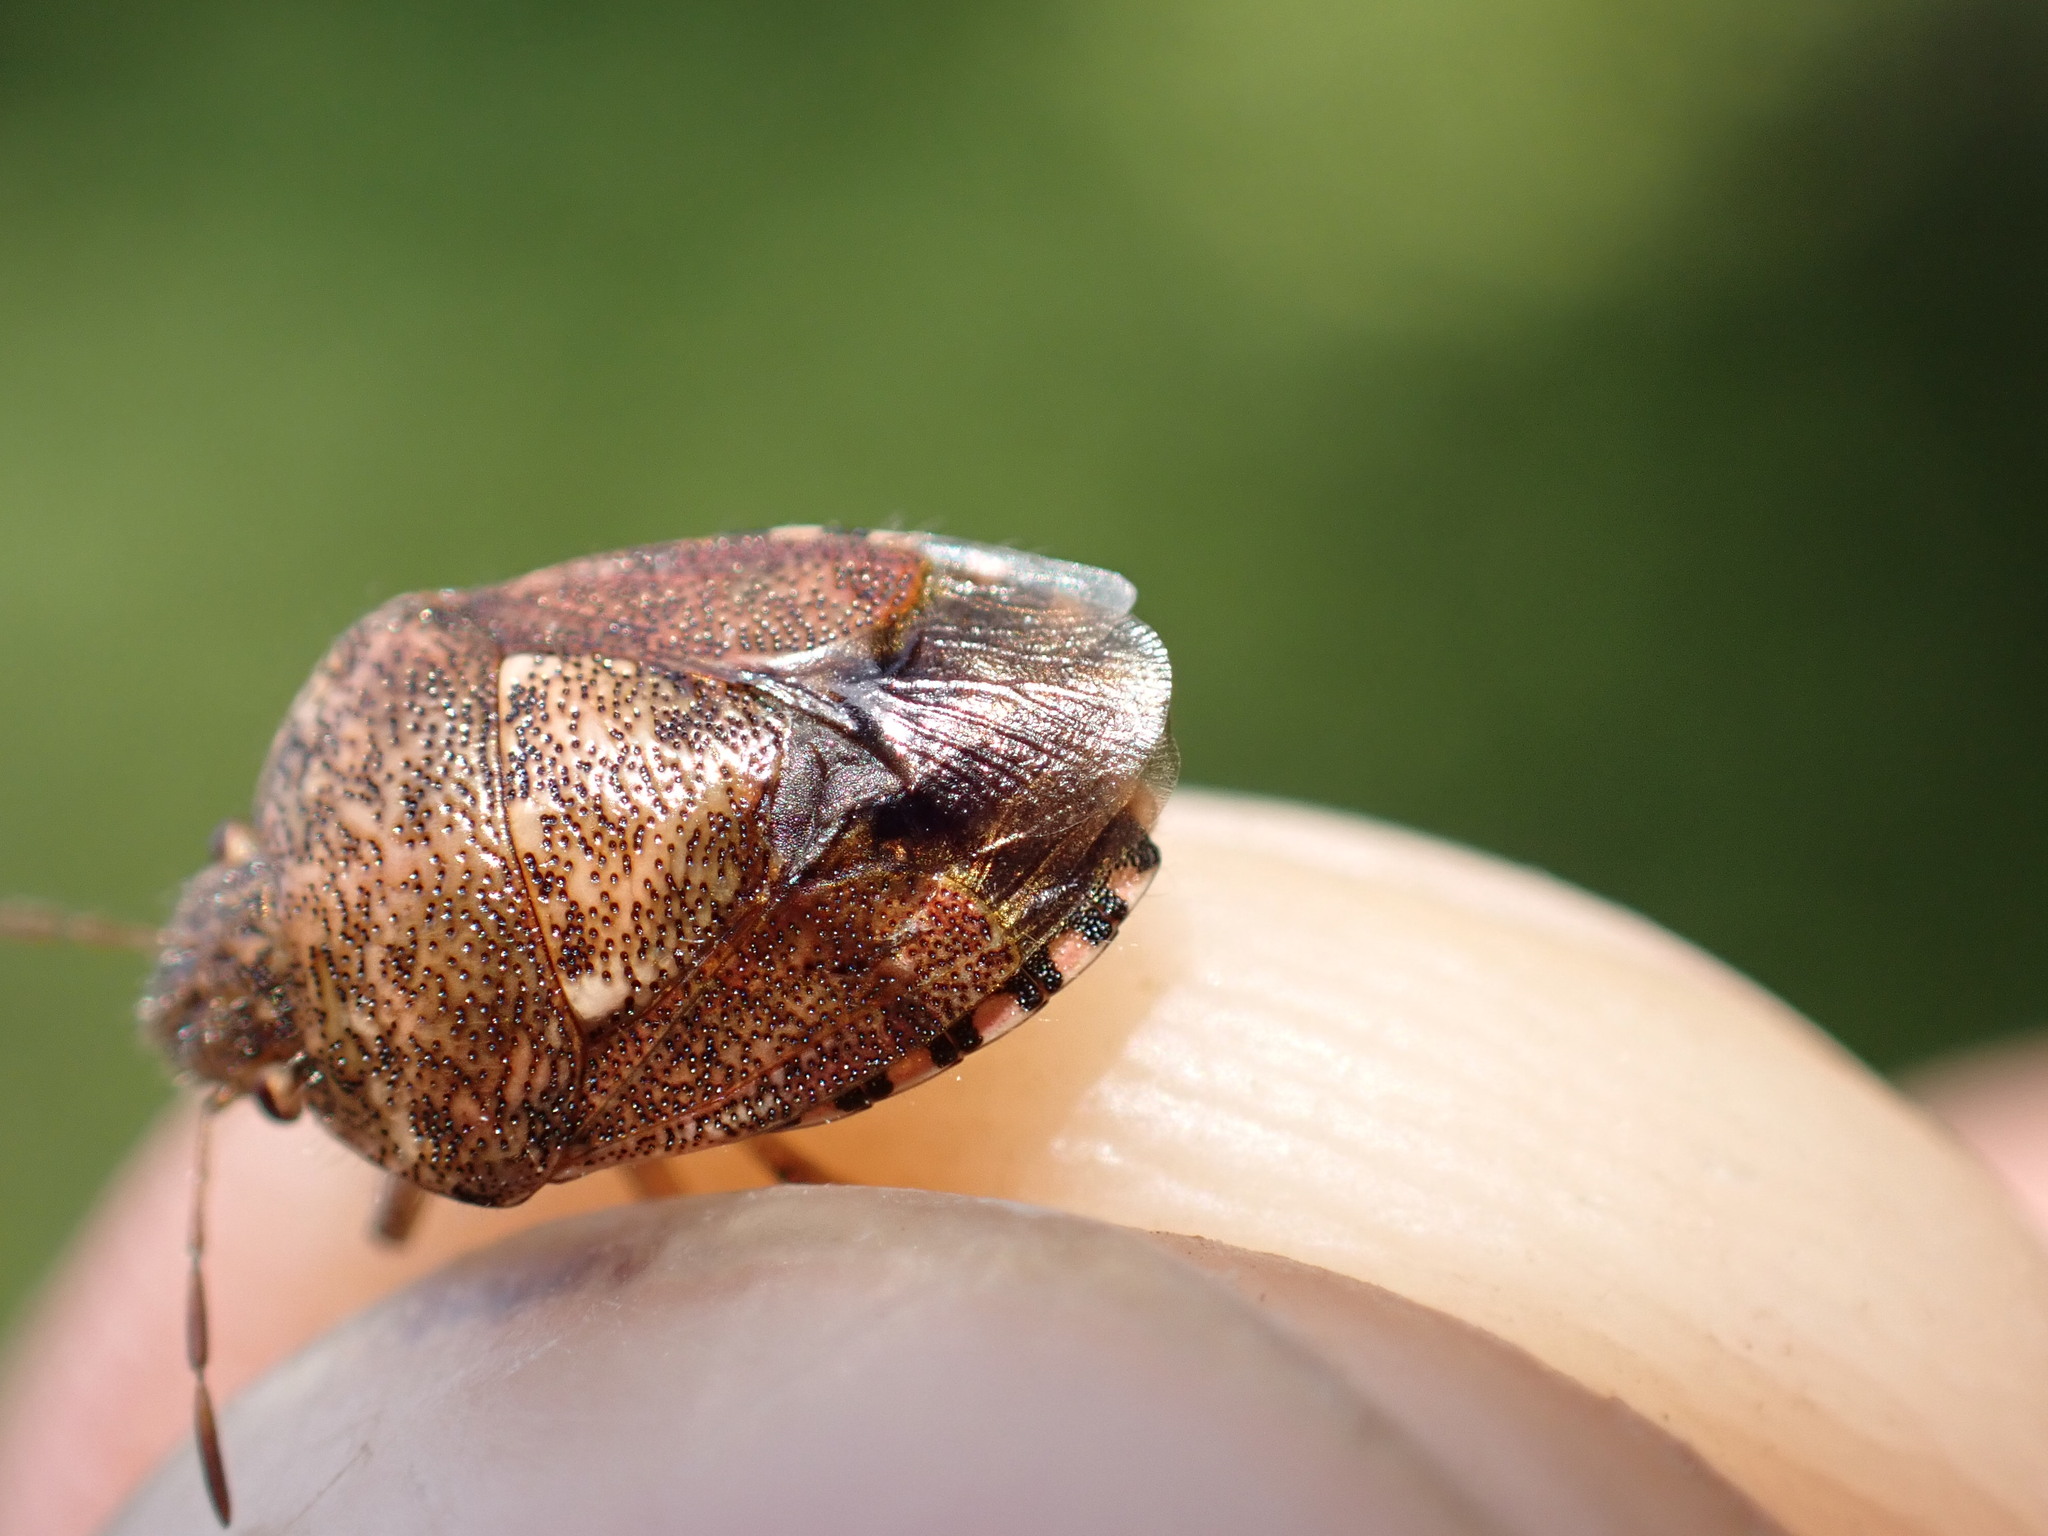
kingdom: Animalia
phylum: Arthropoda
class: Insecta
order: Hemiptera
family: Pentatomidae
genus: Staria
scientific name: Staria lunata
